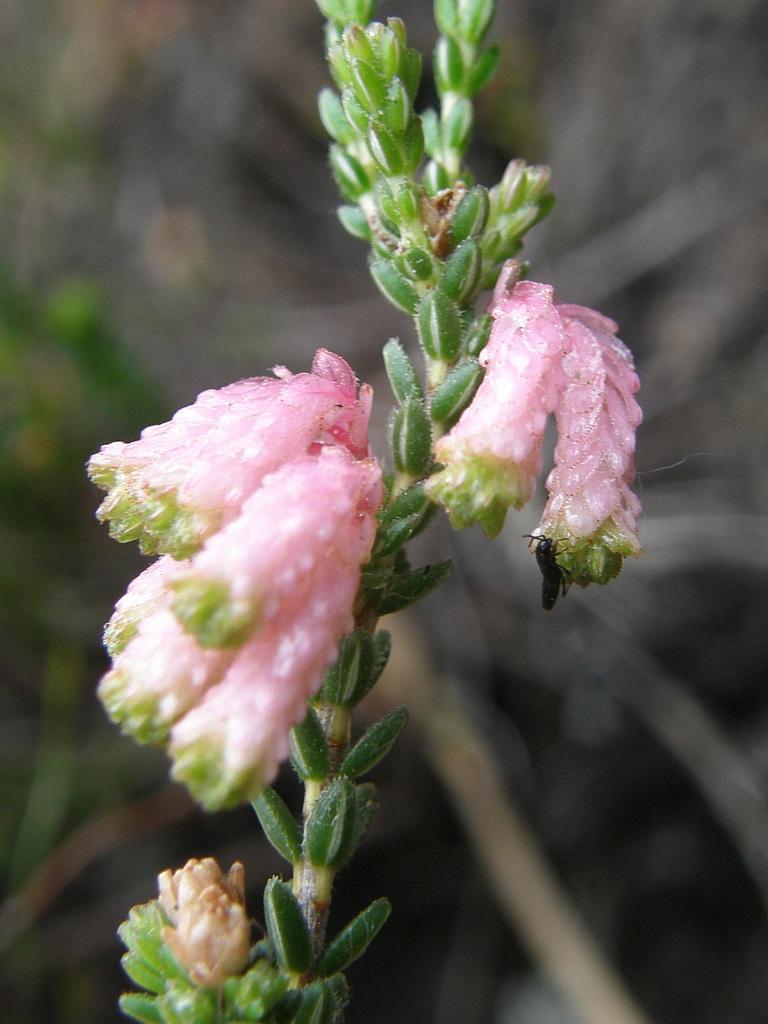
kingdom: Plantae
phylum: Tracheophyta
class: Magnoliopsida
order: Ericales
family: Ericaceae
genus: Erica
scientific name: Erica brevifolia
